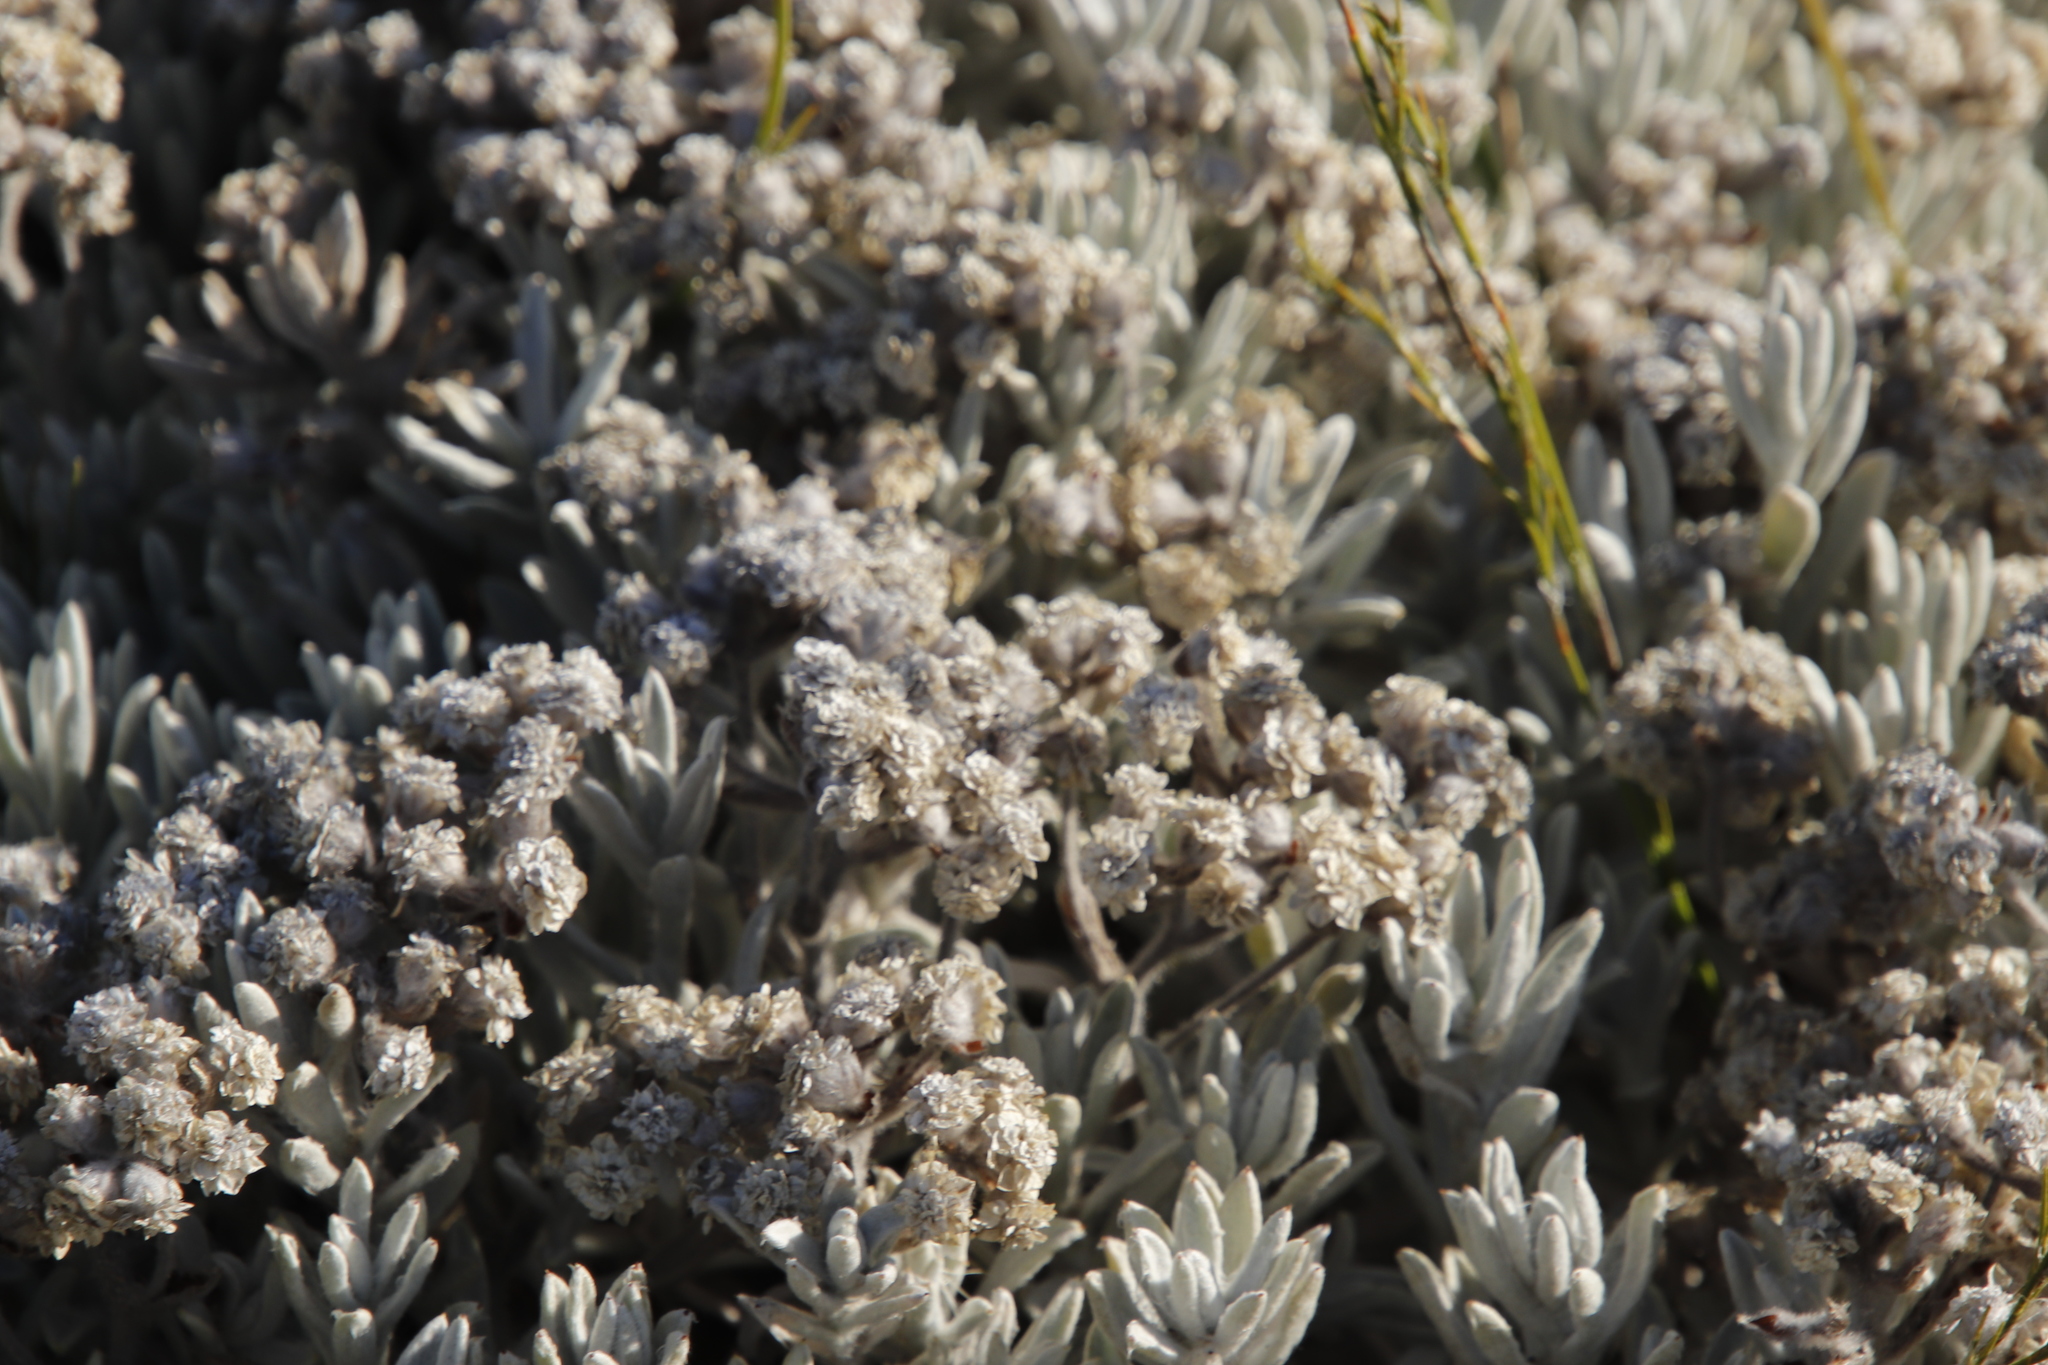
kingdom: Plantae
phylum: Tracheophyta
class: Magnoliopsida
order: Asterales
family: Asteraceae
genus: Petalacte
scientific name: Petalacte coronata
